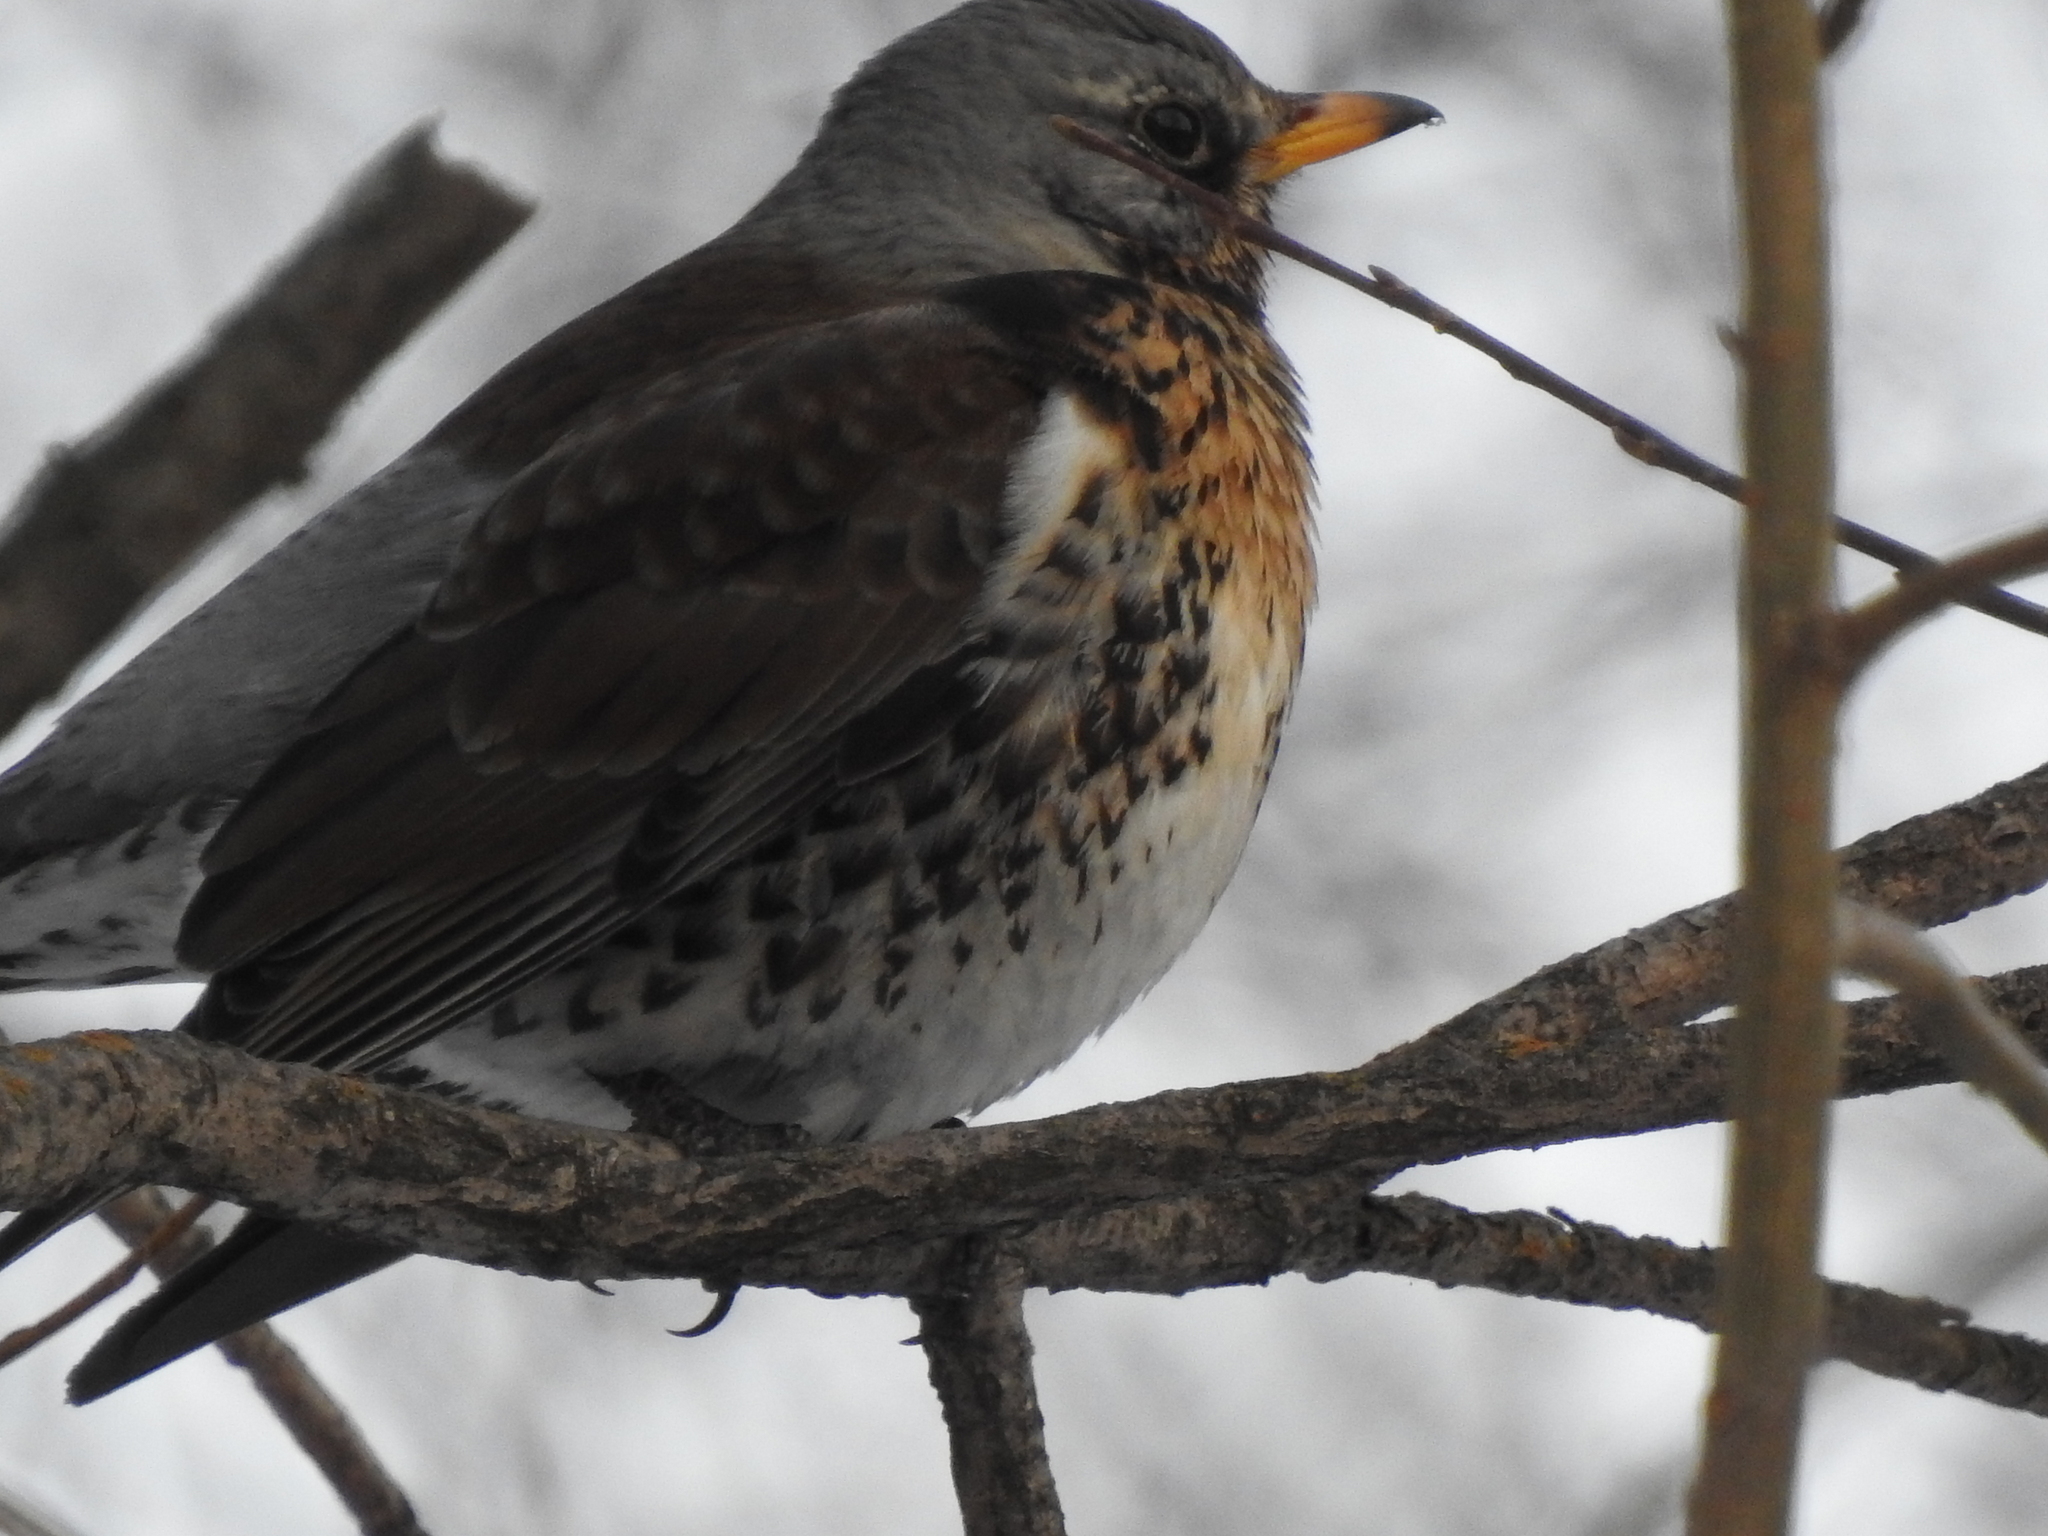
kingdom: Animalia
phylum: Chordata
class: Aves
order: Passeriformes
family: Turdidae
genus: Turdus
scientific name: Turdus pilaris
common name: Fieldfare
